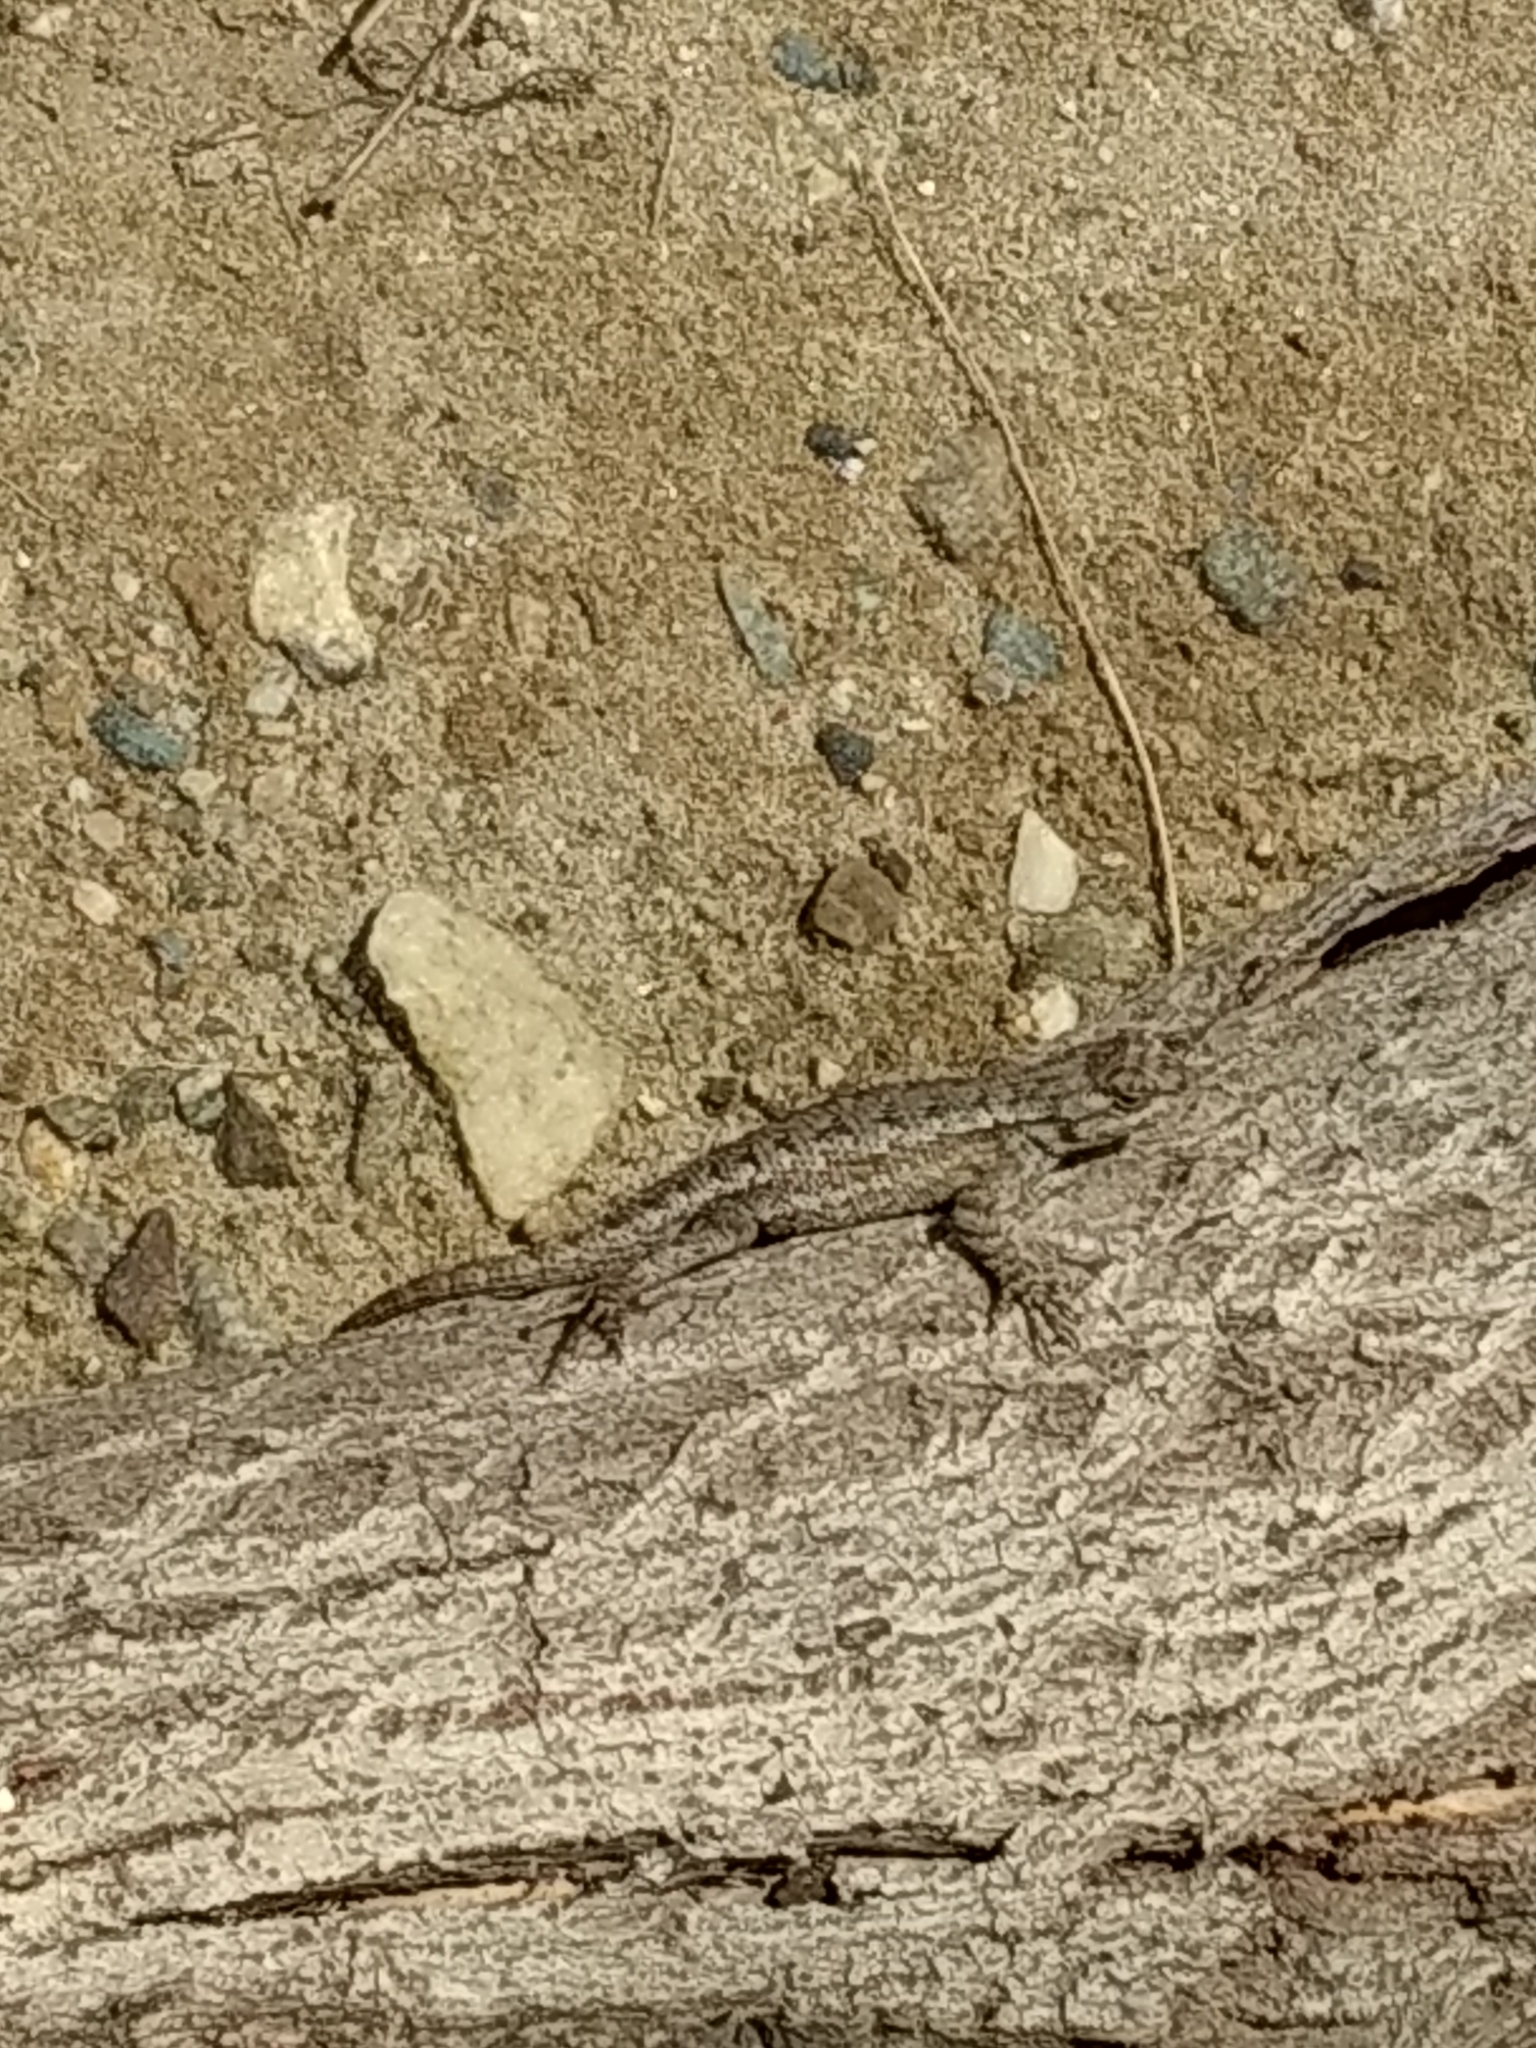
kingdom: Animalia
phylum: Chordata
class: Squamata
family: Phrynosomatidae
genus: Sceloporus
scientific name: Sceloporus occidentalis
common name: Western fence lizard
